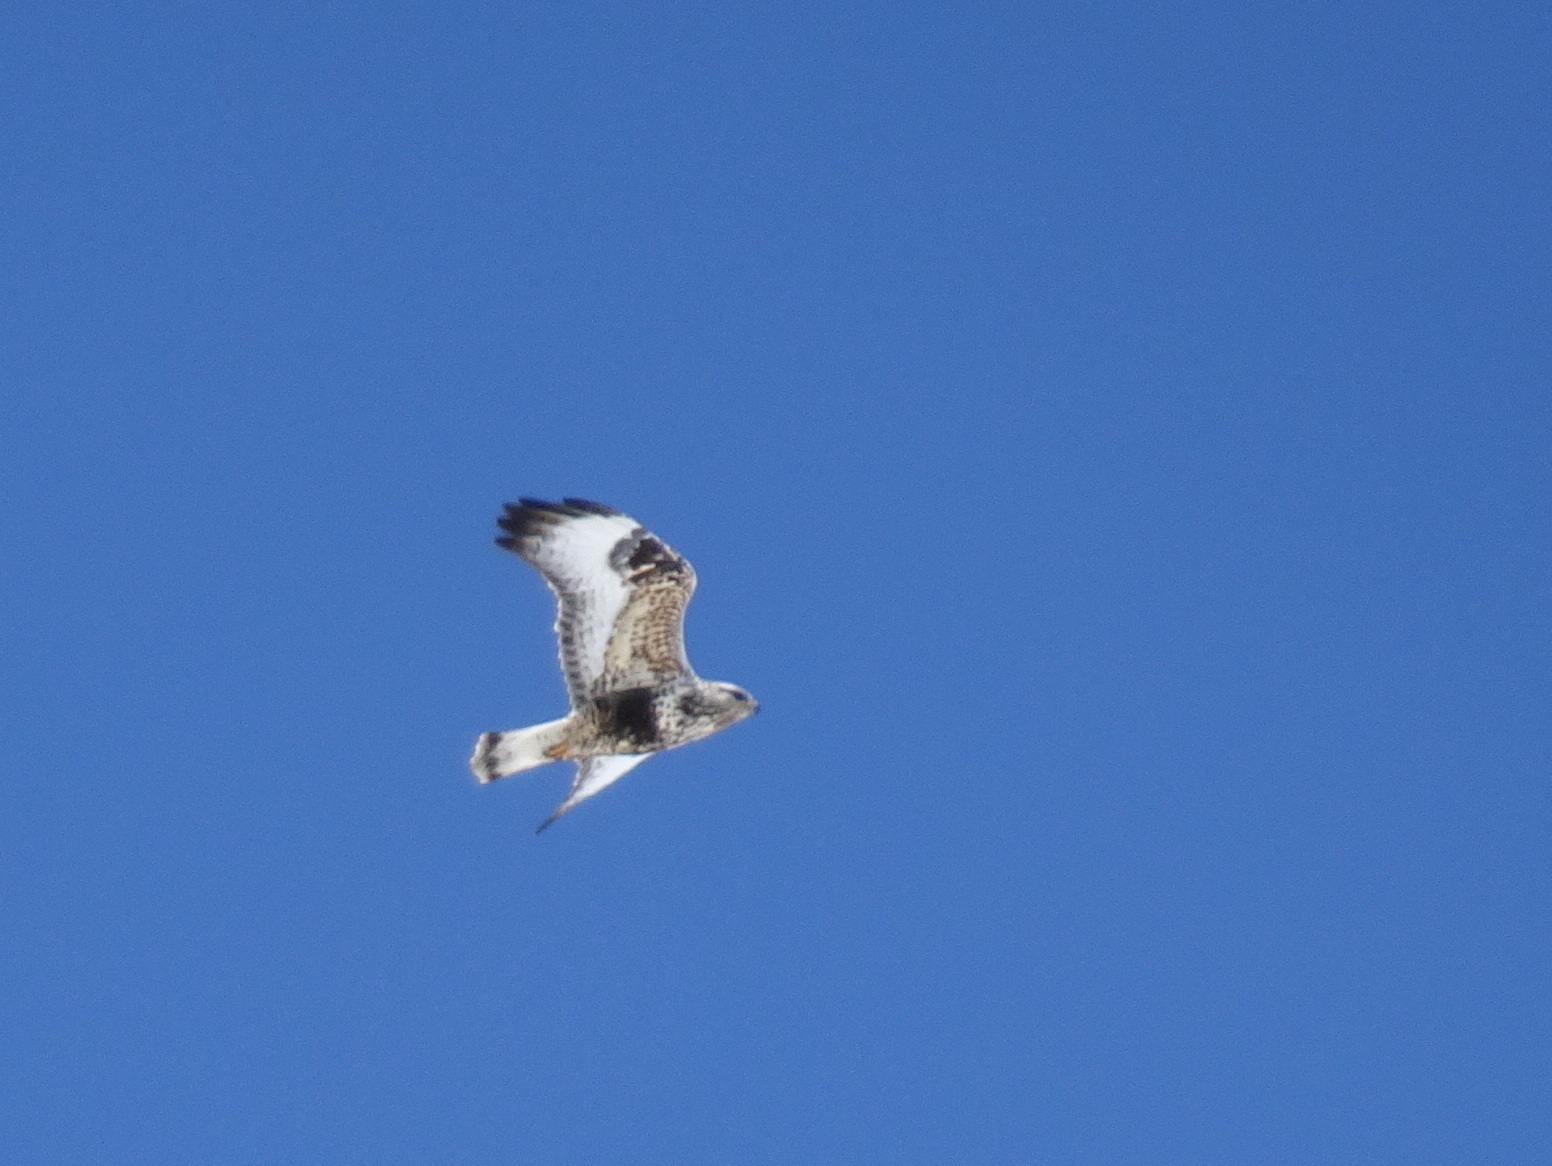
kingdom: Animalia
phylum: Chordata
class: Aves
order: Accipitriformes
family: Accipitridae
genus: Buteo
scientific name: Buteo lagopus
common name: Rough-legged buzzard
